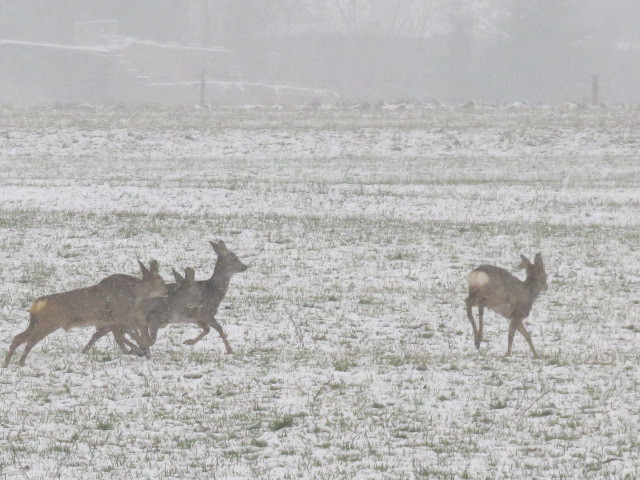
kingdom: Animalia
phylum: Chordata
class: Mammalia
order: Artiodactyla
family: Cervidae
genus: Capreolus
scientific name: Capreolus capreolus
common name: Western roe deer
